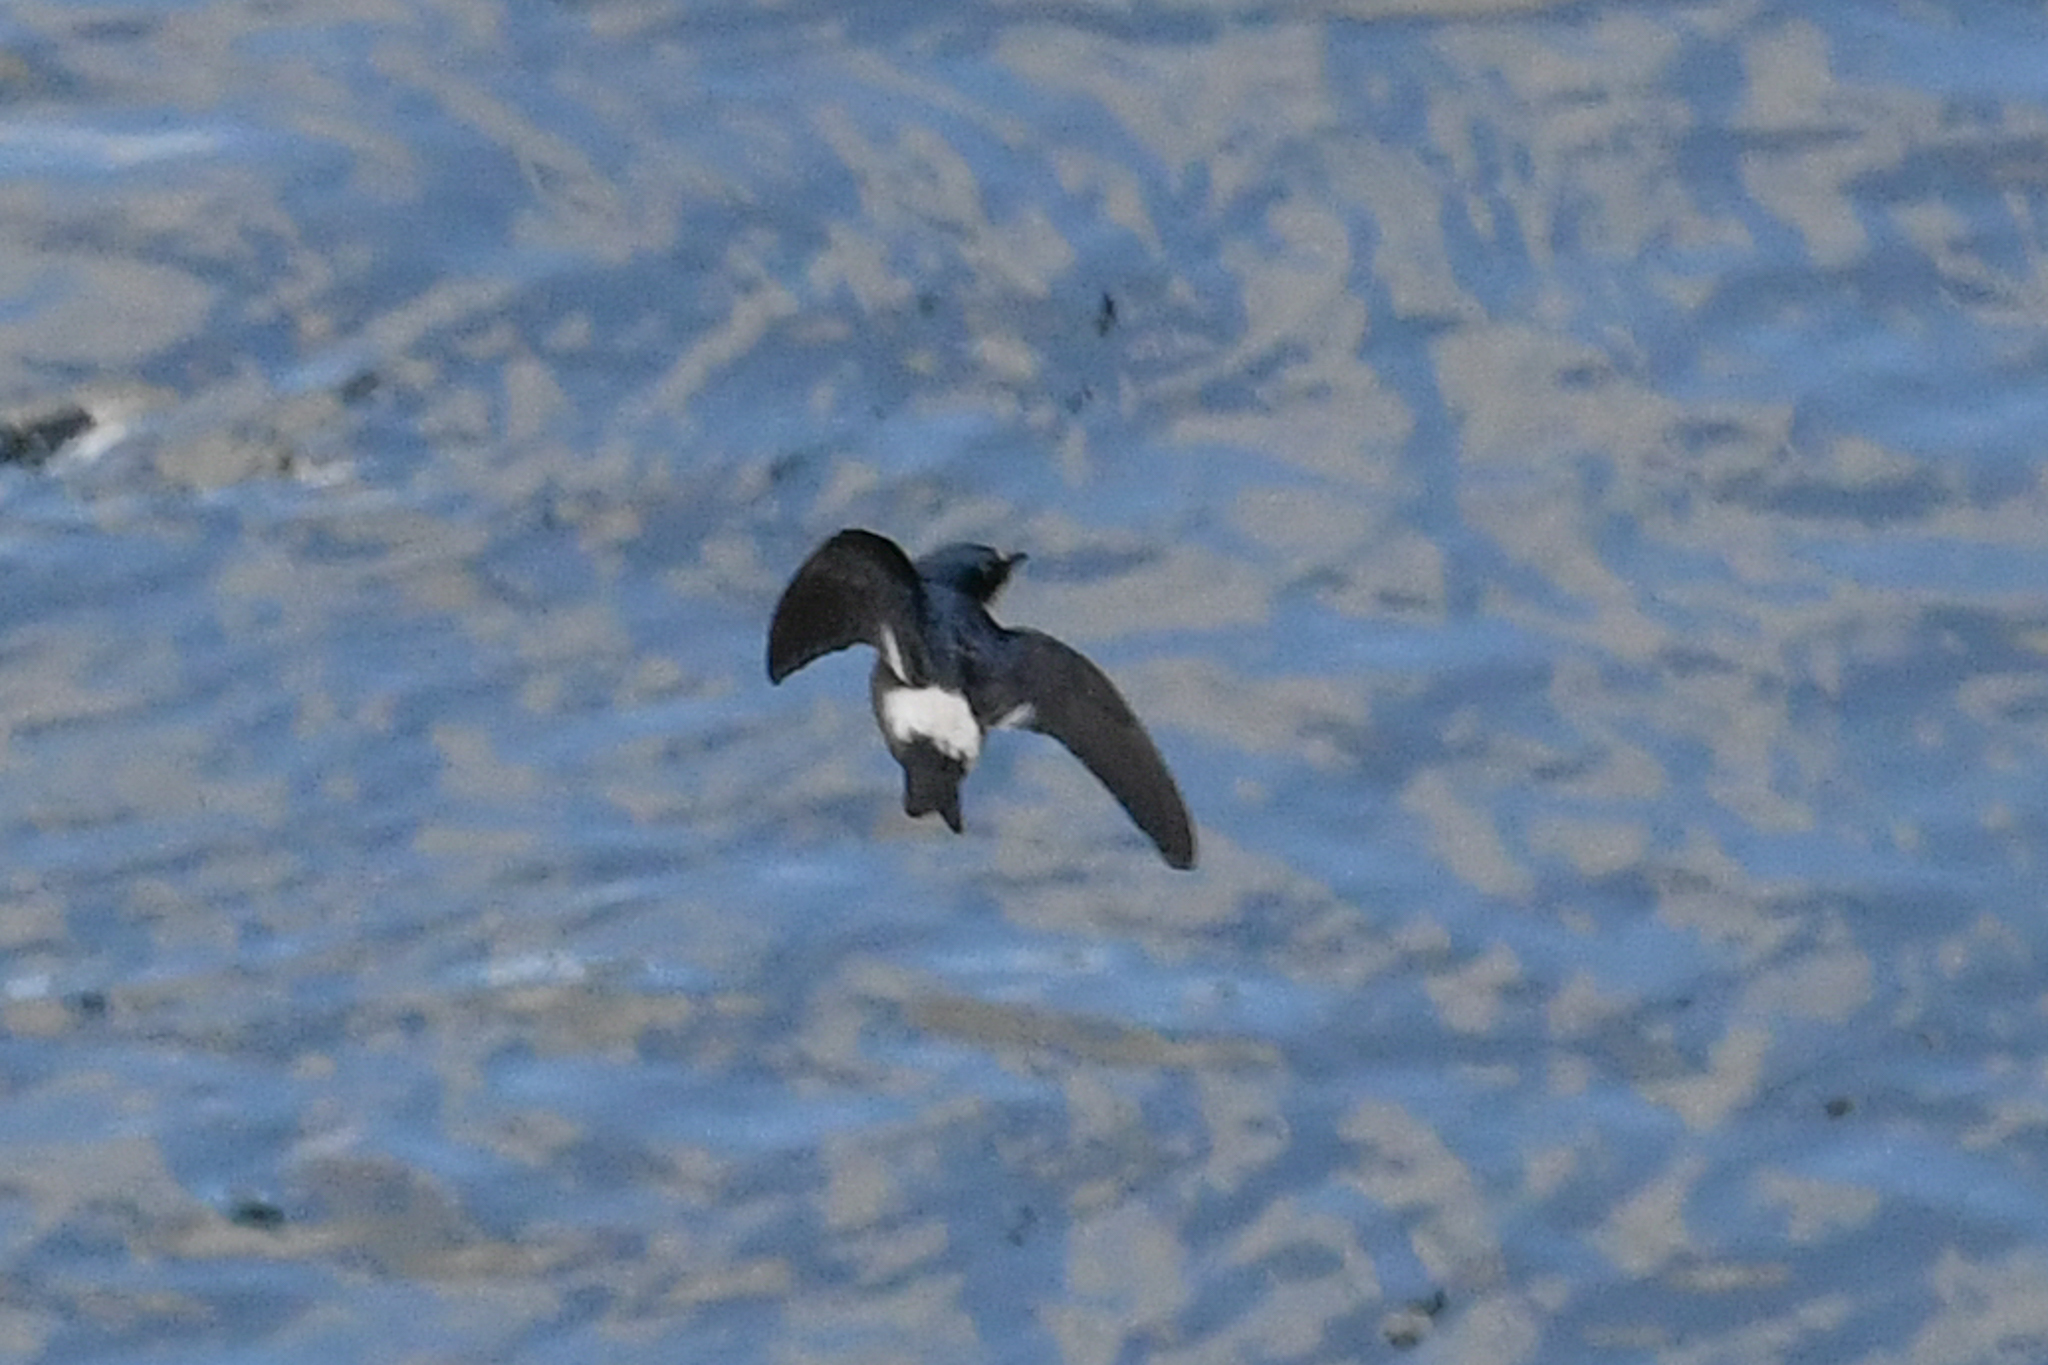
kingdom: Animalia
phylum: Chordata
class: Aves
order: Passeriformes
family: Hirundinidae
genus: Tachycineta
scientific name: Tachycineta albilinea
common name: Mangrove swallow
